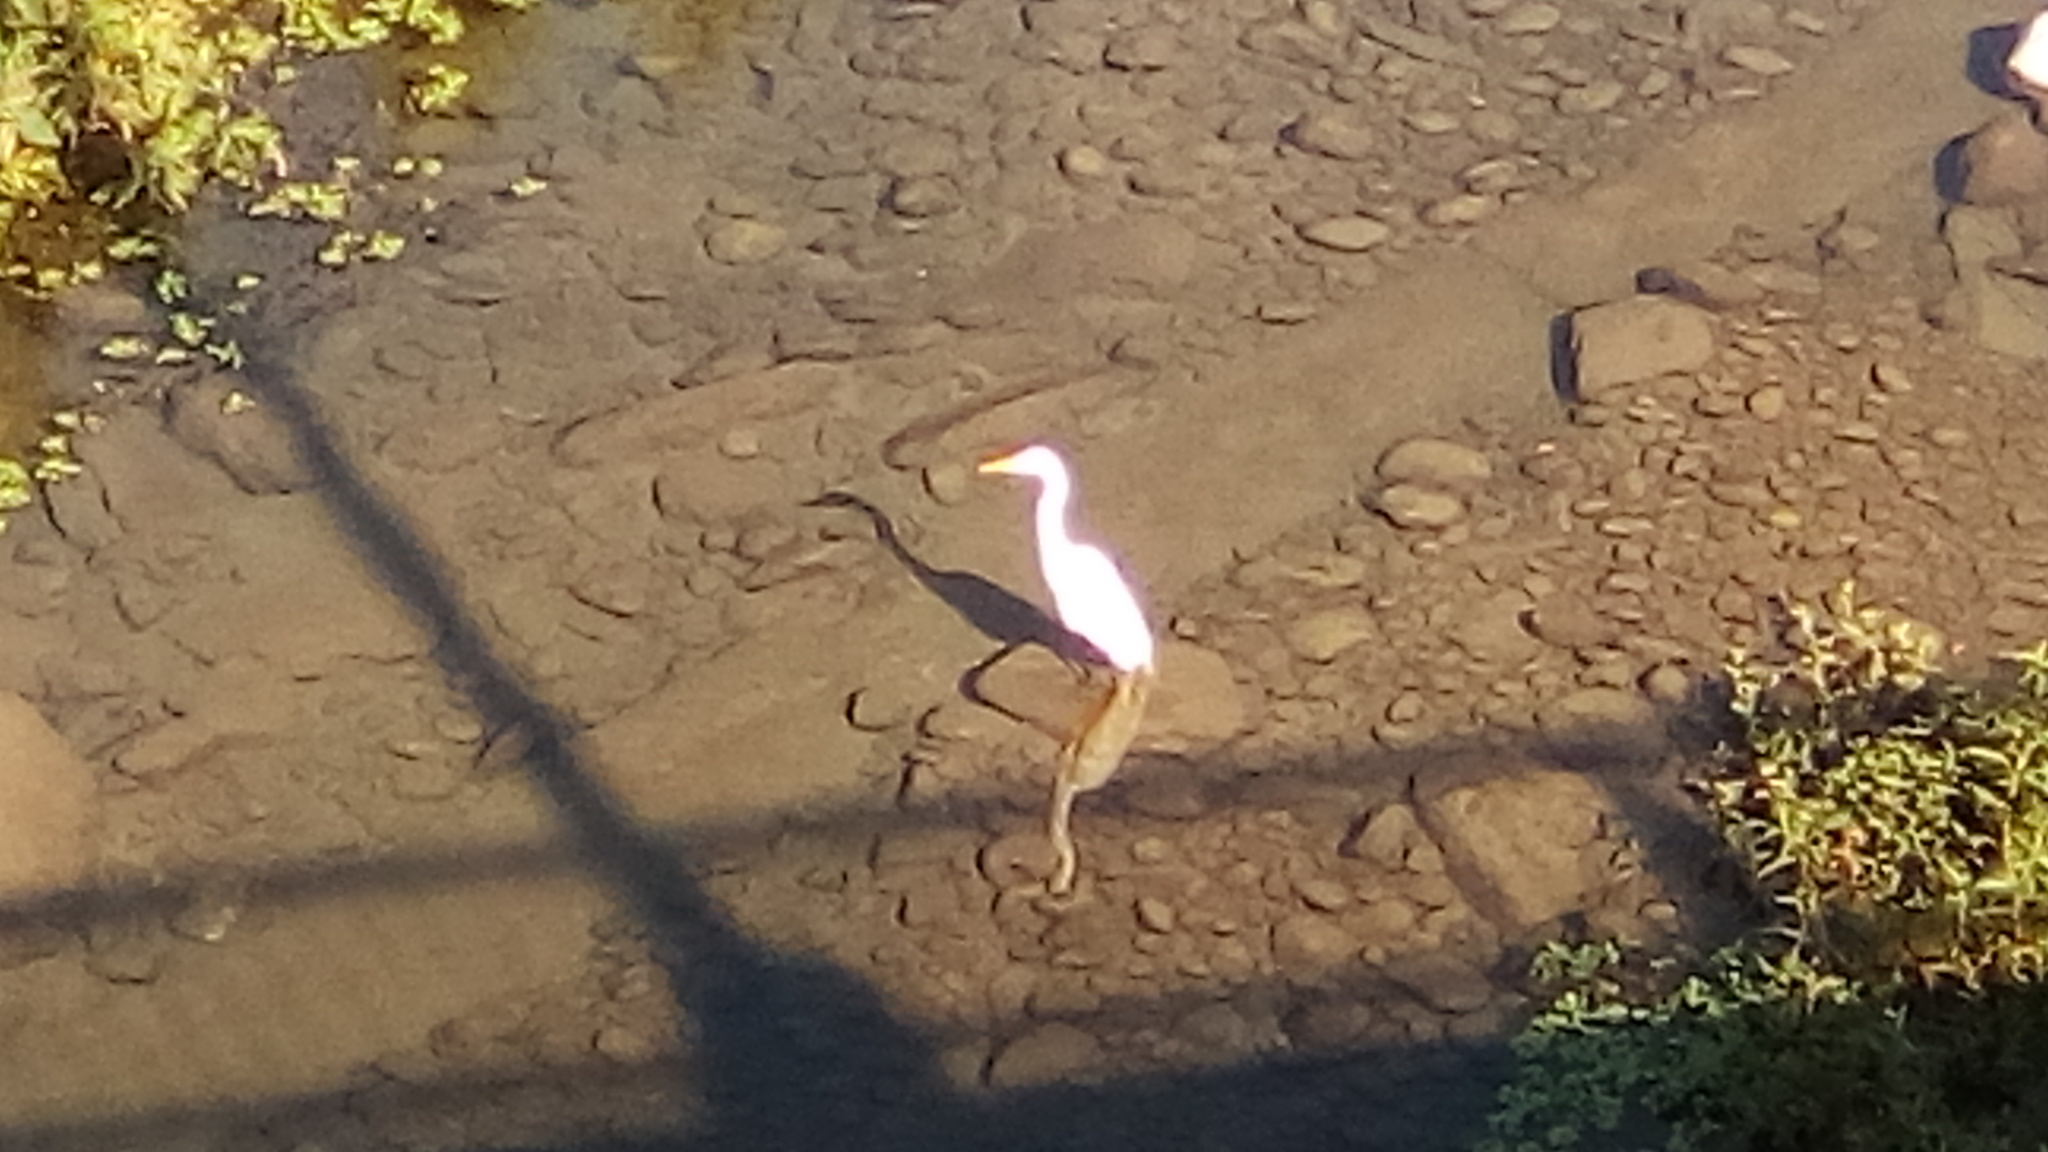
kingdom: Animalia
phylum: Chordata
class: Aves
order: Pelecaniformes
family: Ardeidae
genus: Ardea
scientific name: Ardea alba
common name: Great egret
